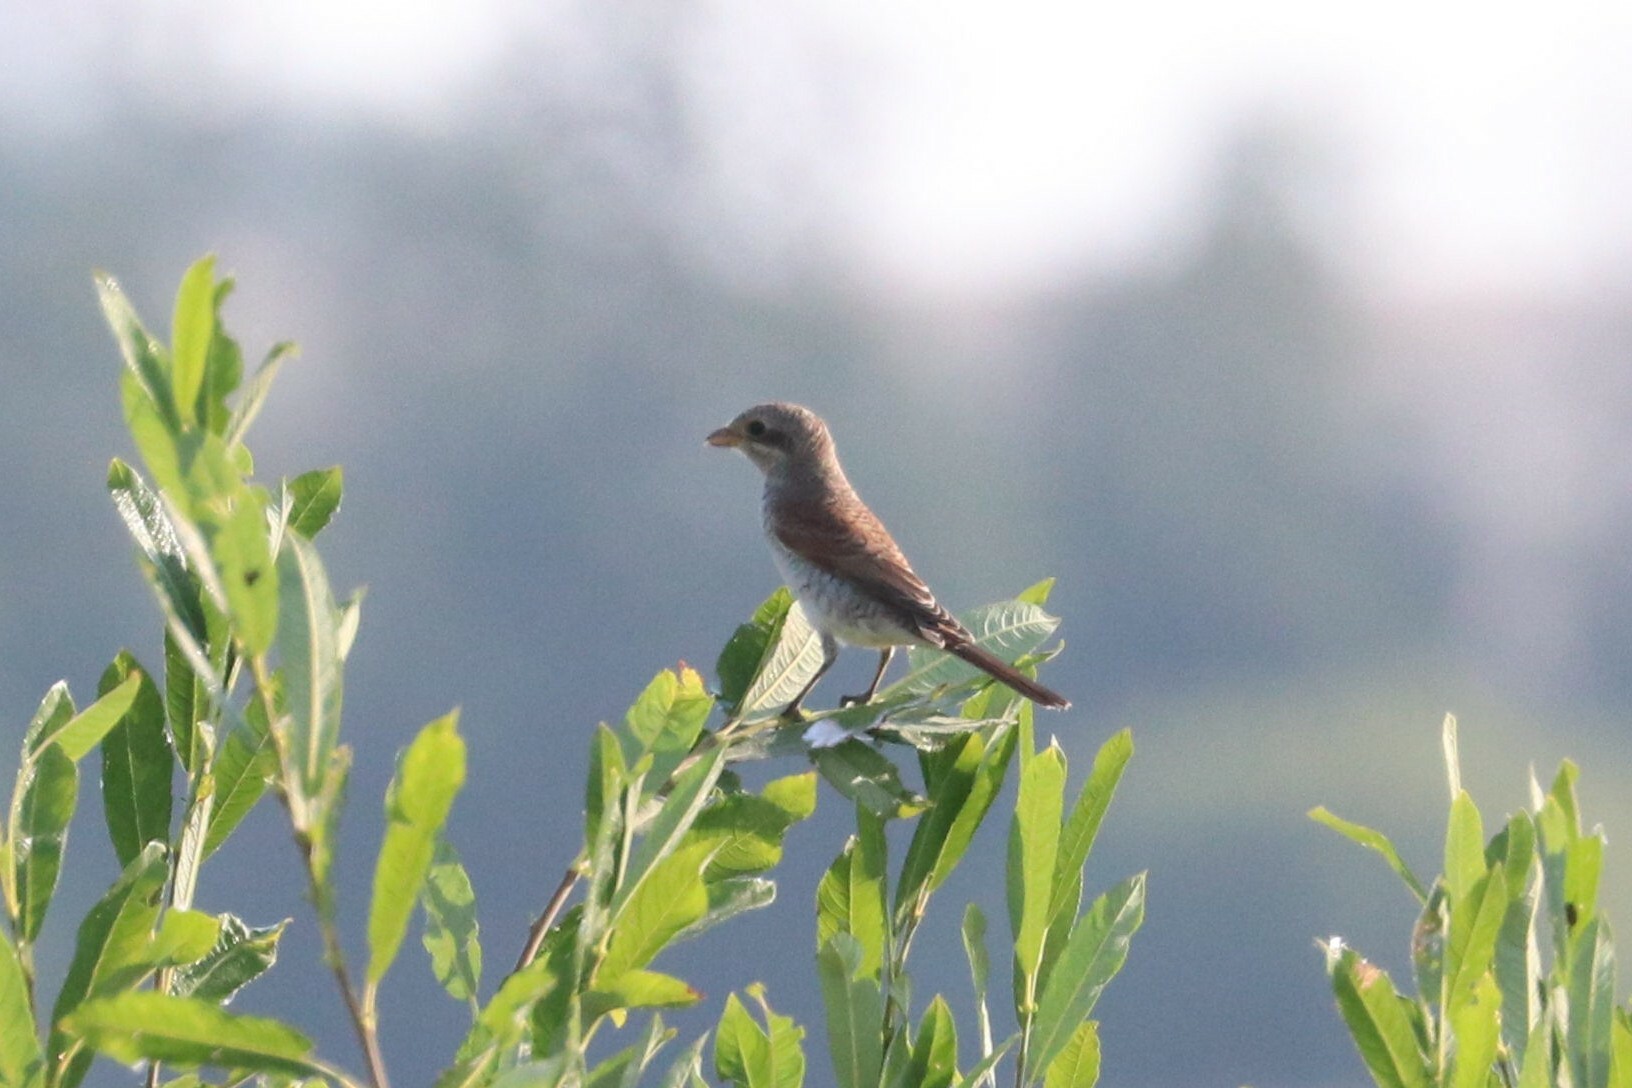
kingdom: Animalia
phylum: Chordata
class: Aves
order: Passeriformes
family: Laniidae
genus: Lanius
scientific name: Lanius collurio
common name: Red-backed shrike
